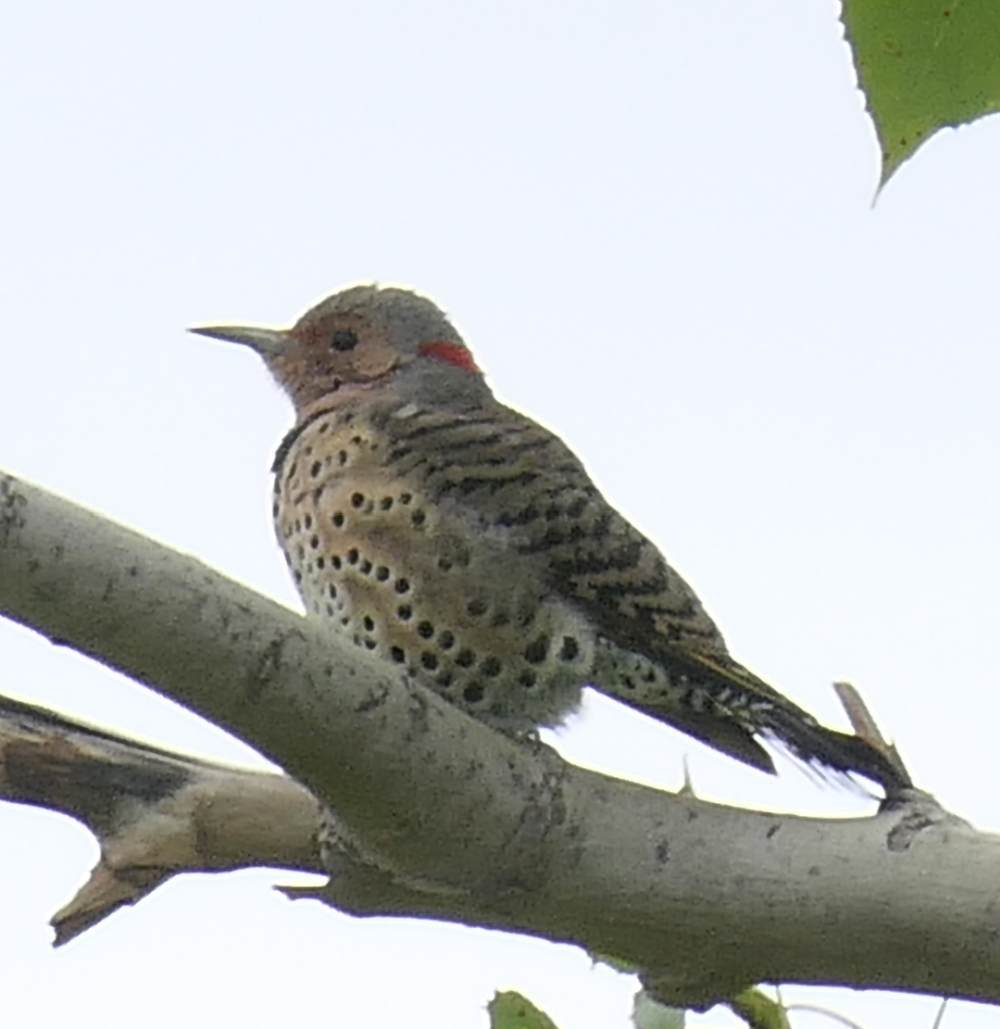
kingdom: Animalia
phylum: Chordata
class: Aves
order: Piciformes
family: Picidae
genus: Colaptes
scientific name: Colaptes auratus
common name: Northern flicker
